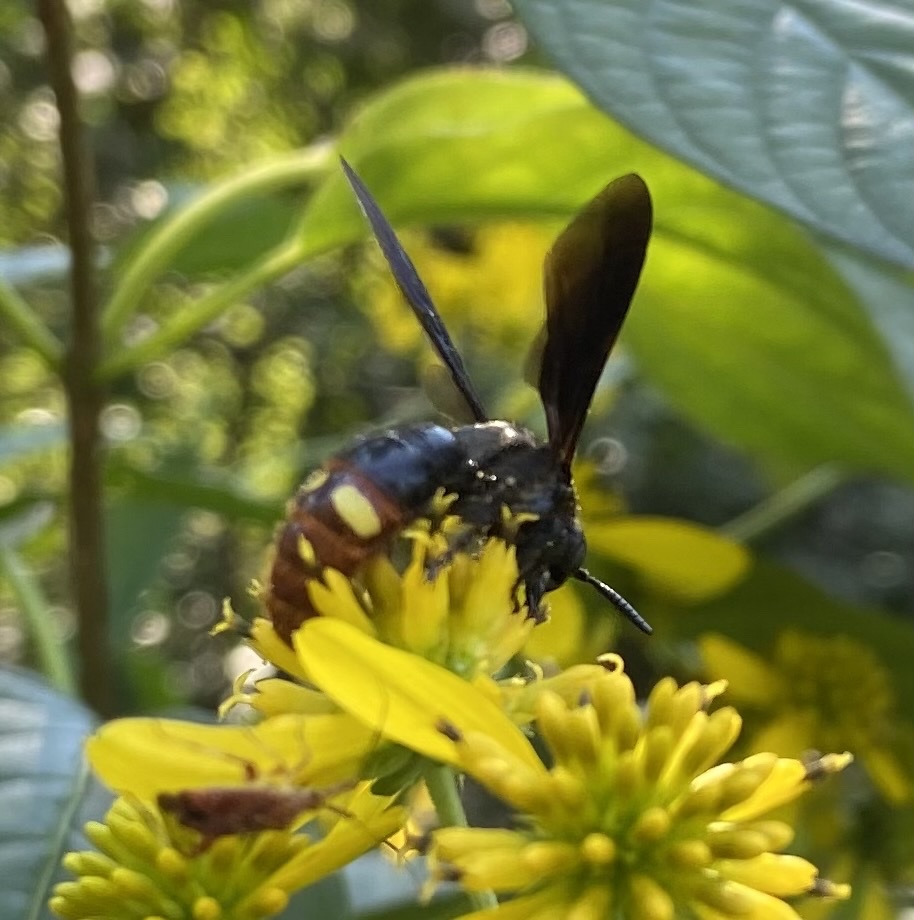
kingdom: Animalia
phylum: Arthropoda
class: Insecta
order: Hymenoptera
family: Scoliidae
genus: Scolia
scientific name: Scolia dubia
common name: Blue-winged scoliid wasp
